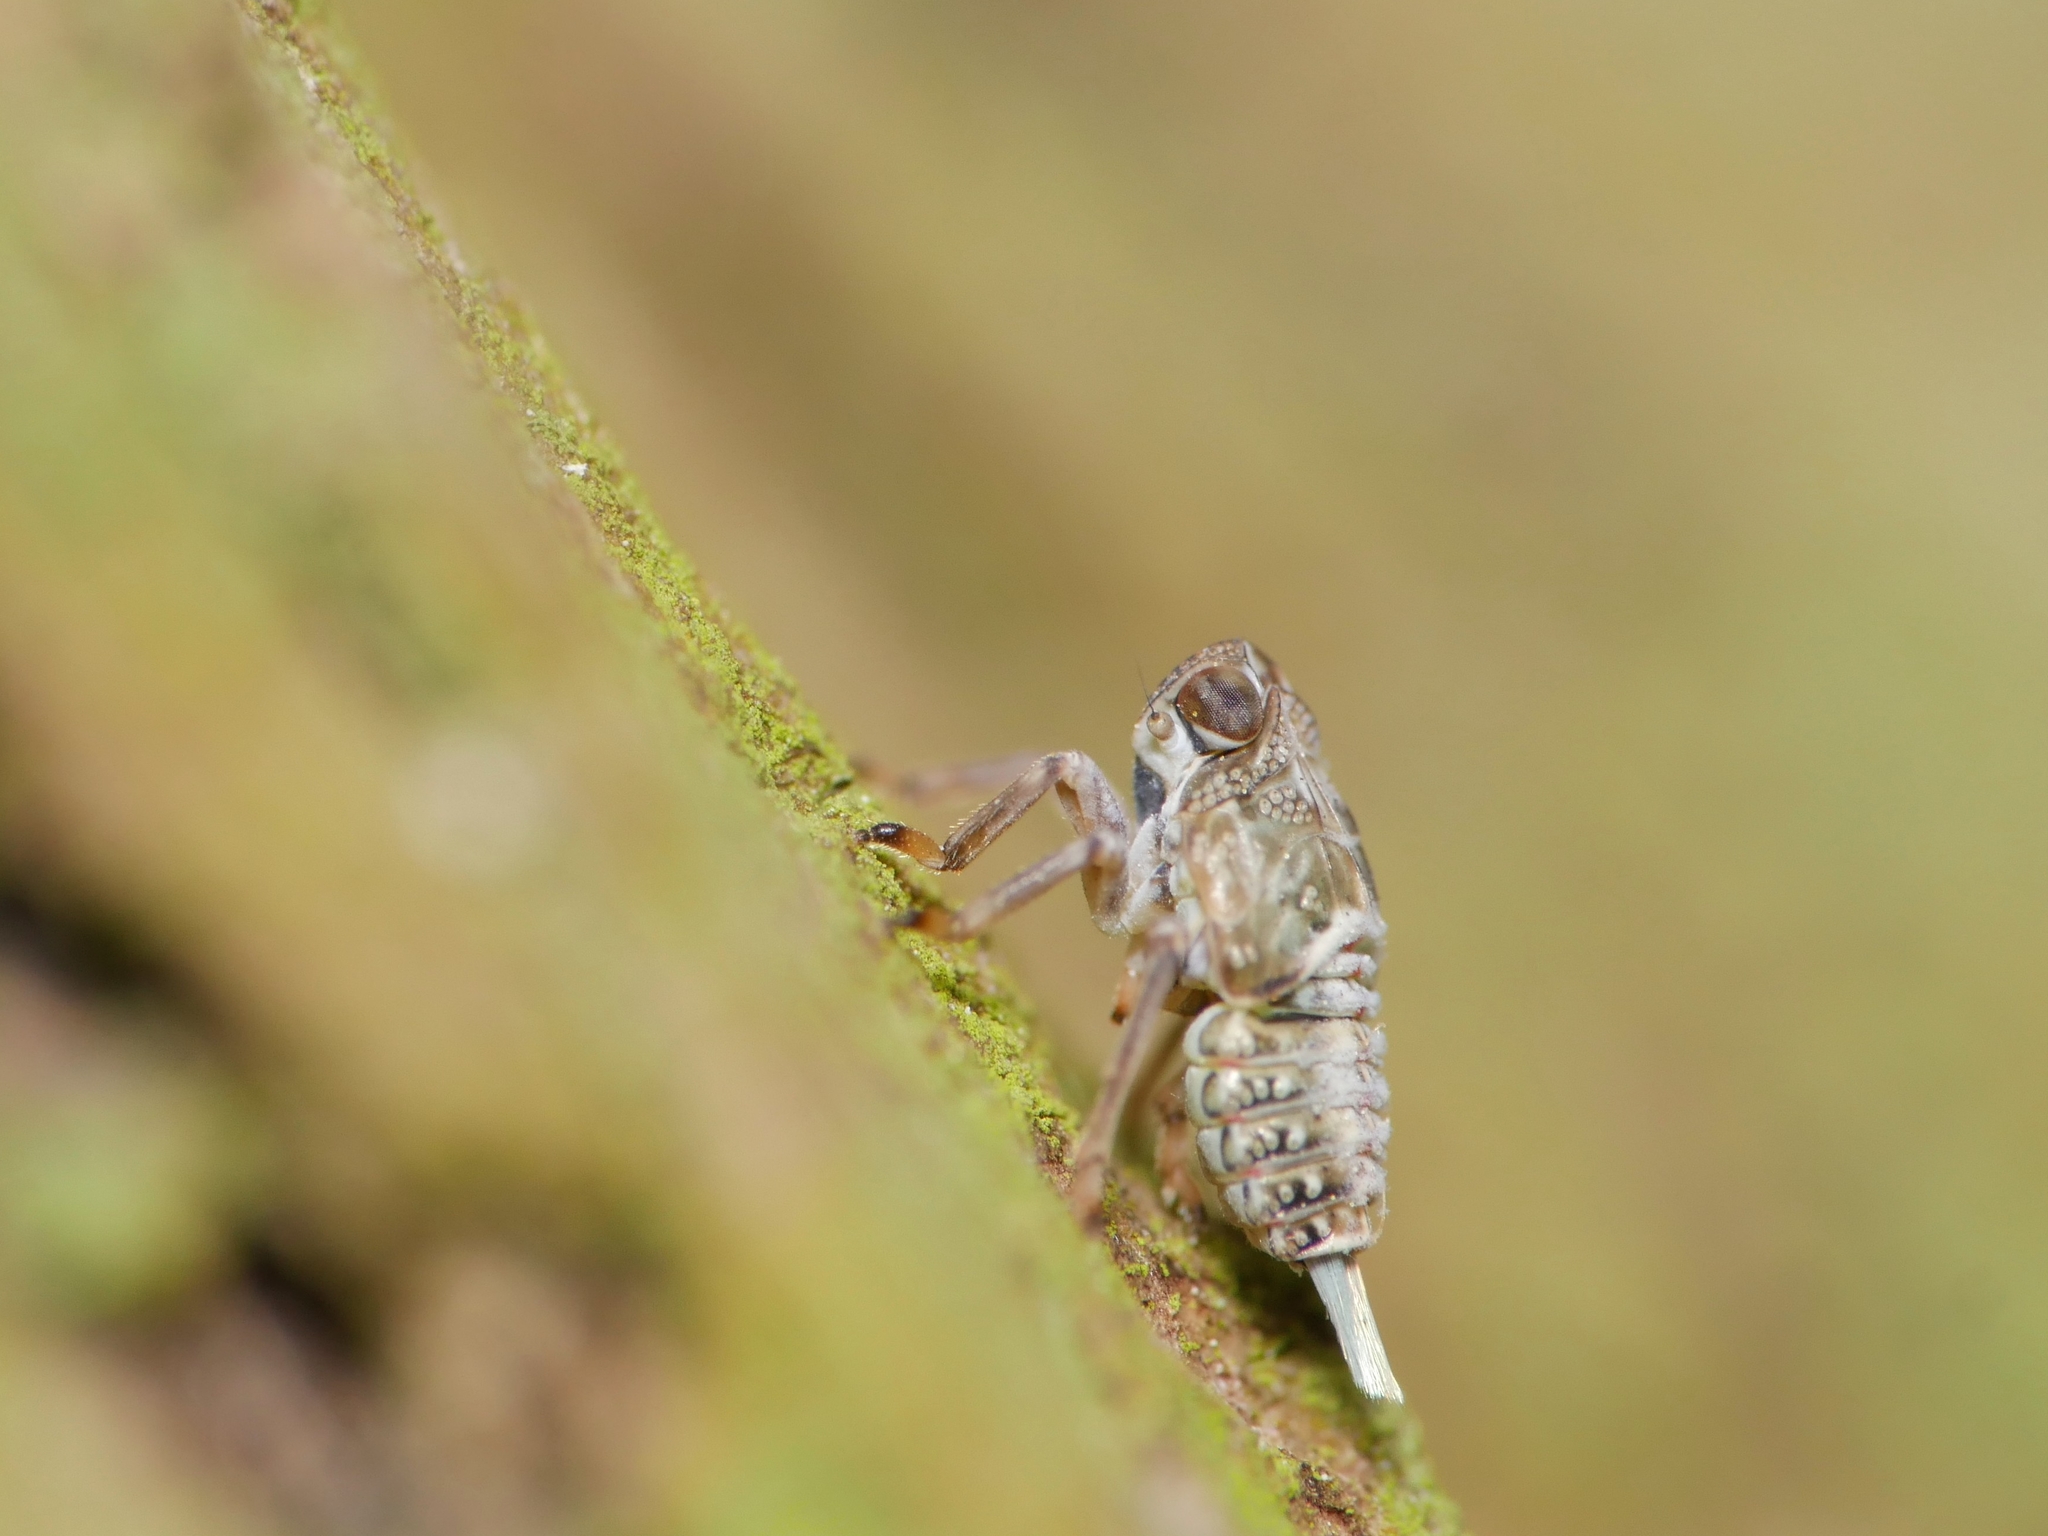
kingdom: Animalia
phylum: Arthropoda
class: Insecta
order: Hemiptera
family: Issidae
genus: Issus
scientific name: Issus coleoptratus
